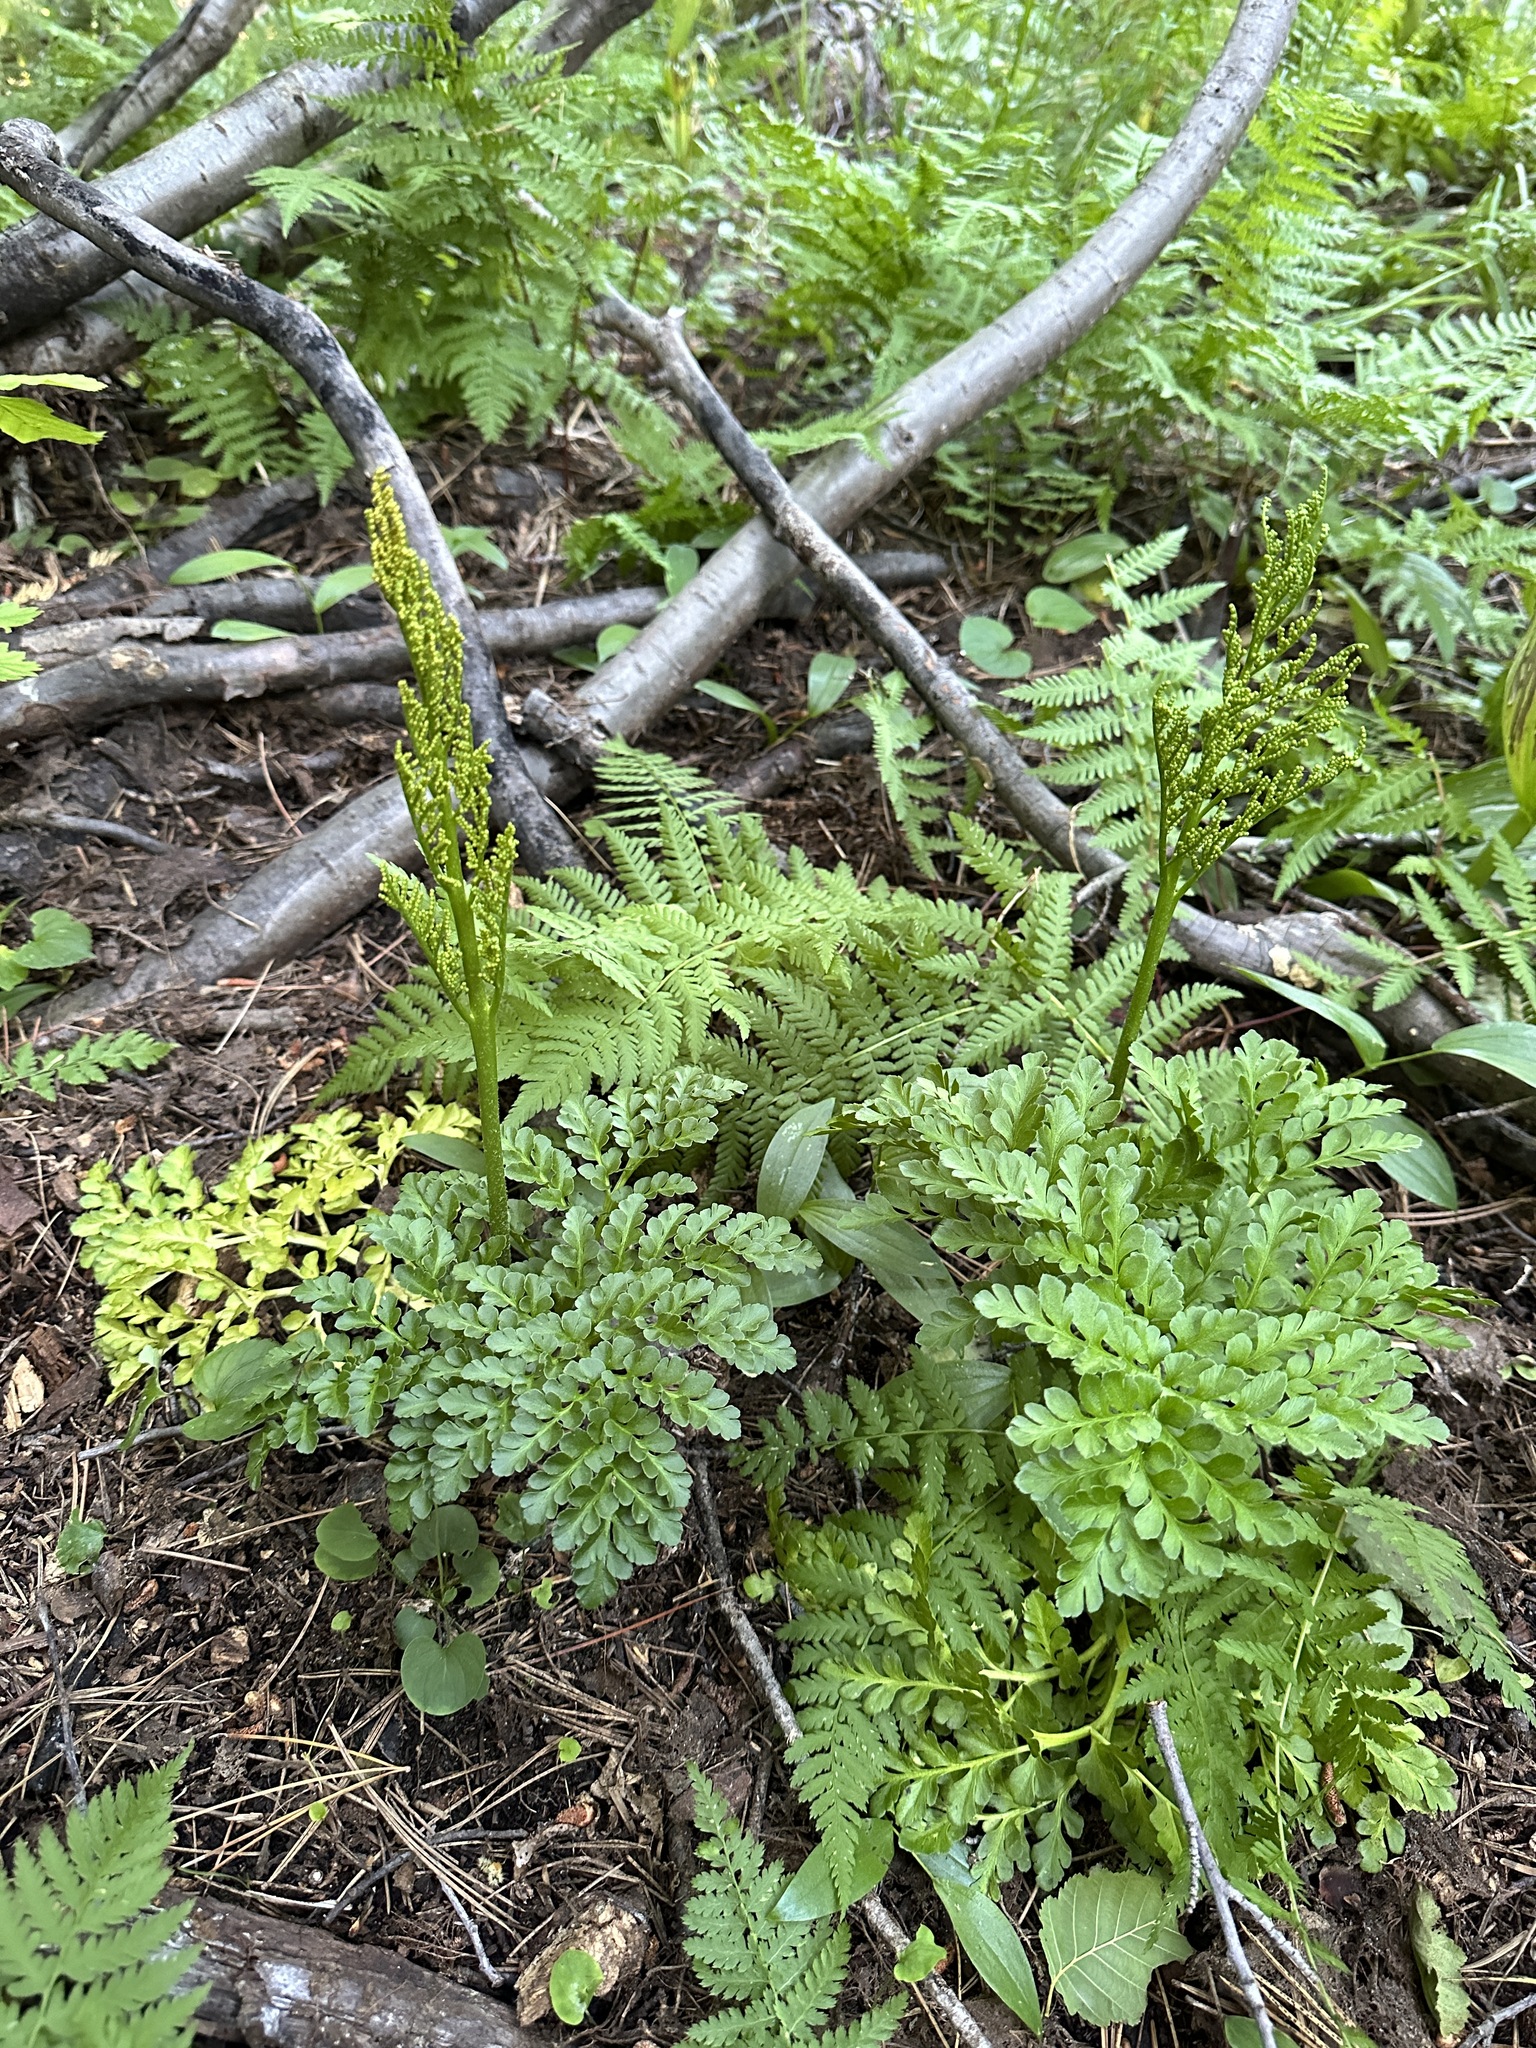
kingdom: Plantae
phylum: Tracheophyta
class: Polypodiopsida
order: Ophioglossales
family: Ophioglossaceae
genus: Sceptridium
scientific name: Sceptridium multifidum
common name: Leathery grape fern
